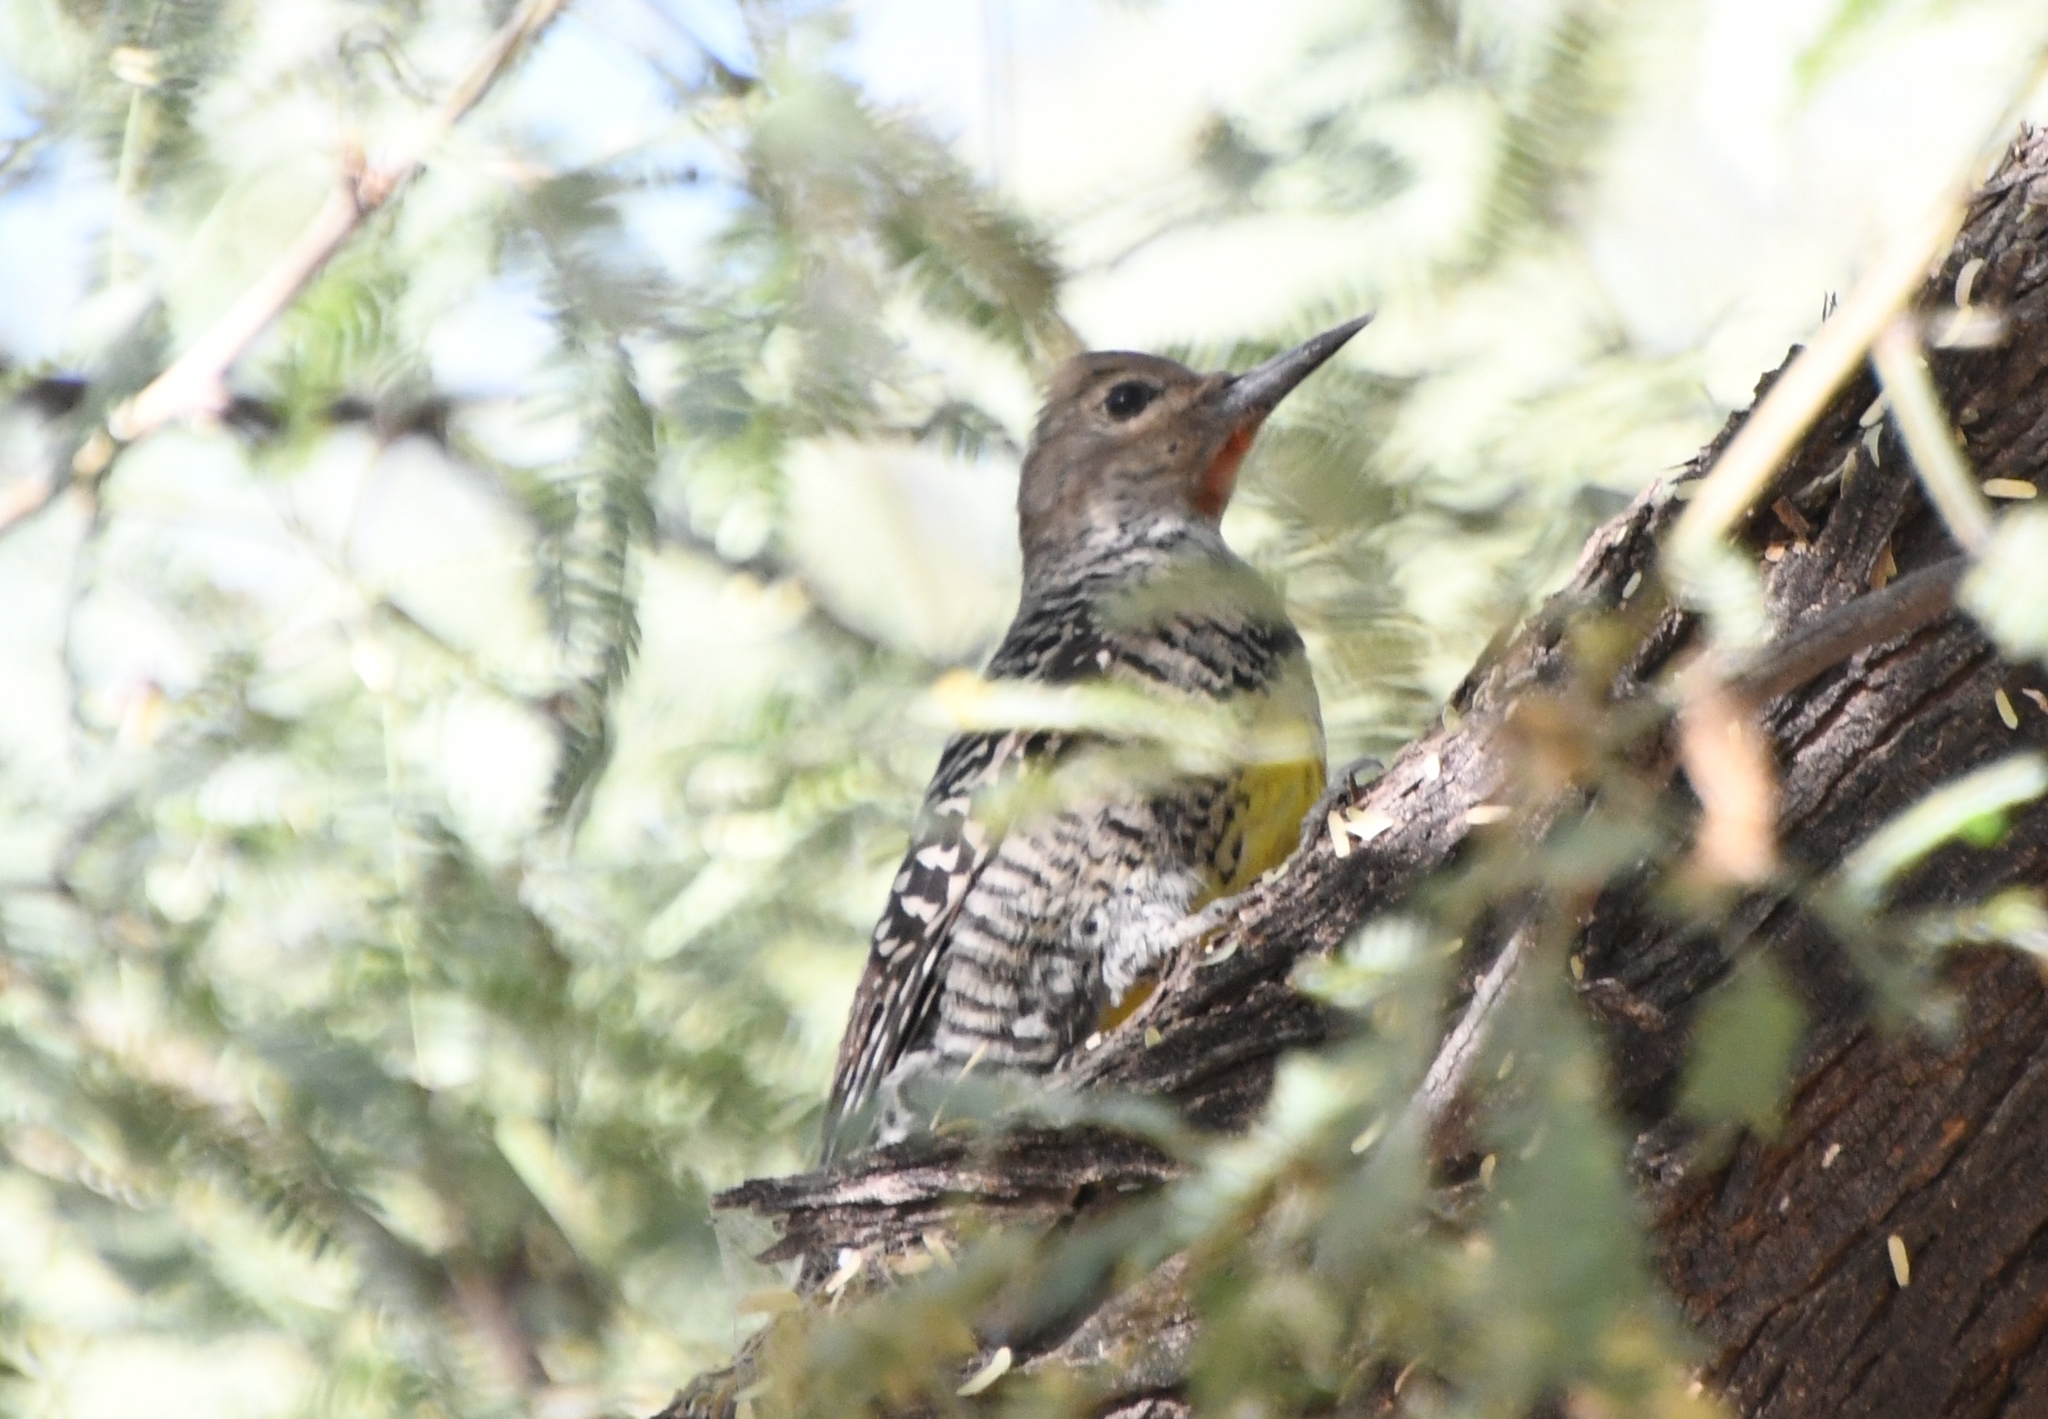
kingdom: Animalia
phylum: Chordata
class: Aves
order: Piciformes
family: Picidae
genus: Sphyrapicus
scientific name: Sphyrapicus thyroideus
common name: Williamson's sapsucker
